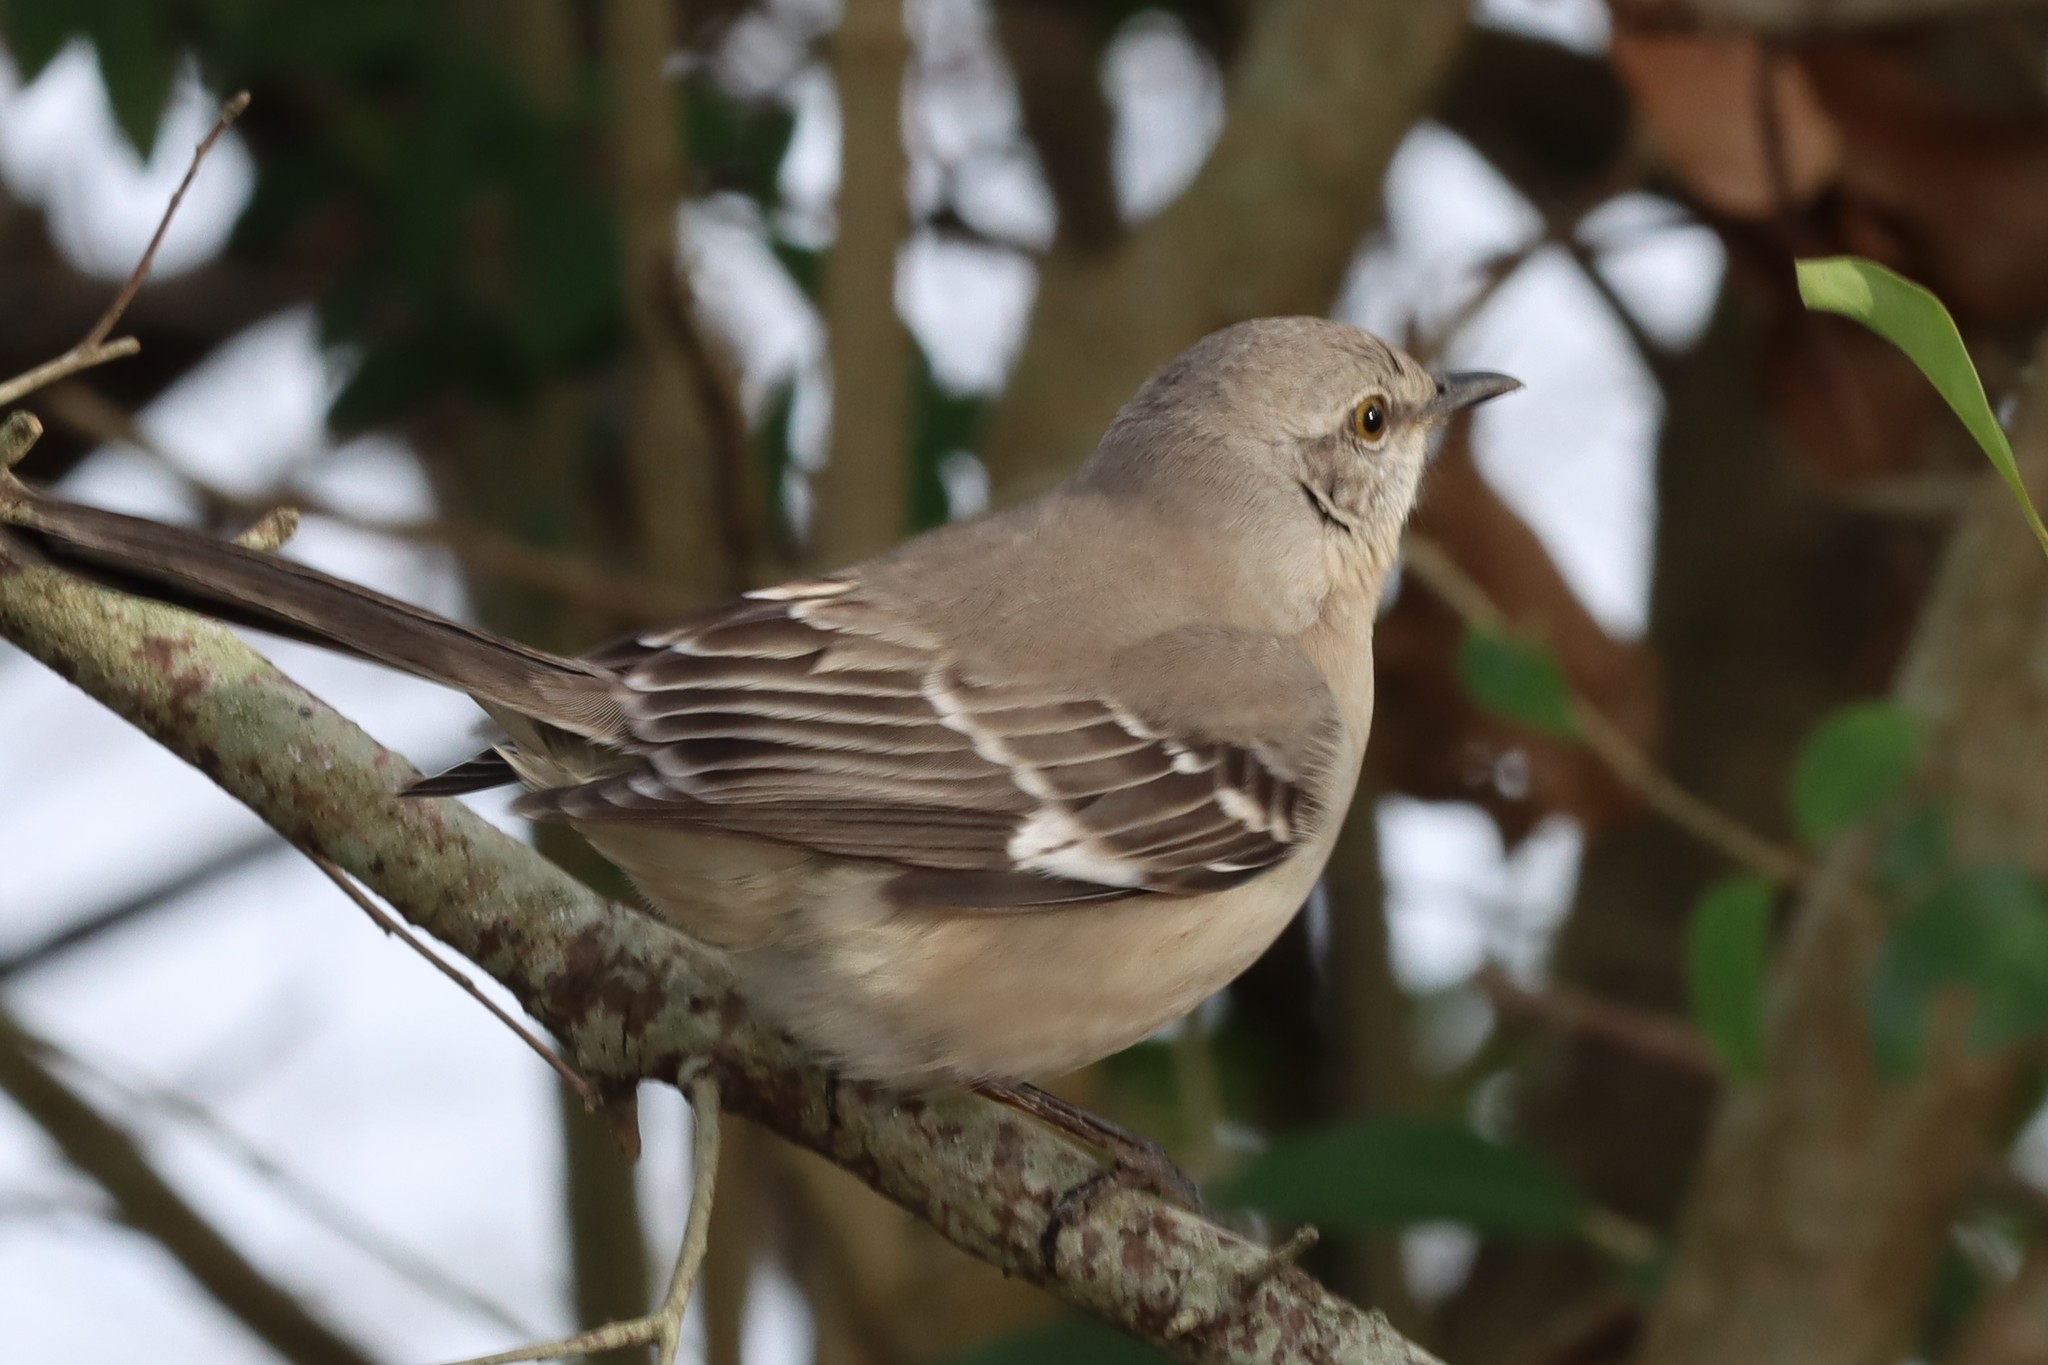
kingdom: Animalia
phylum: Chordata
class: Aves
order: Passeriformes
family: Mimidae
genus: Mimus
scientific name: Mimus polyglottos
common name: Northern mockingbird
